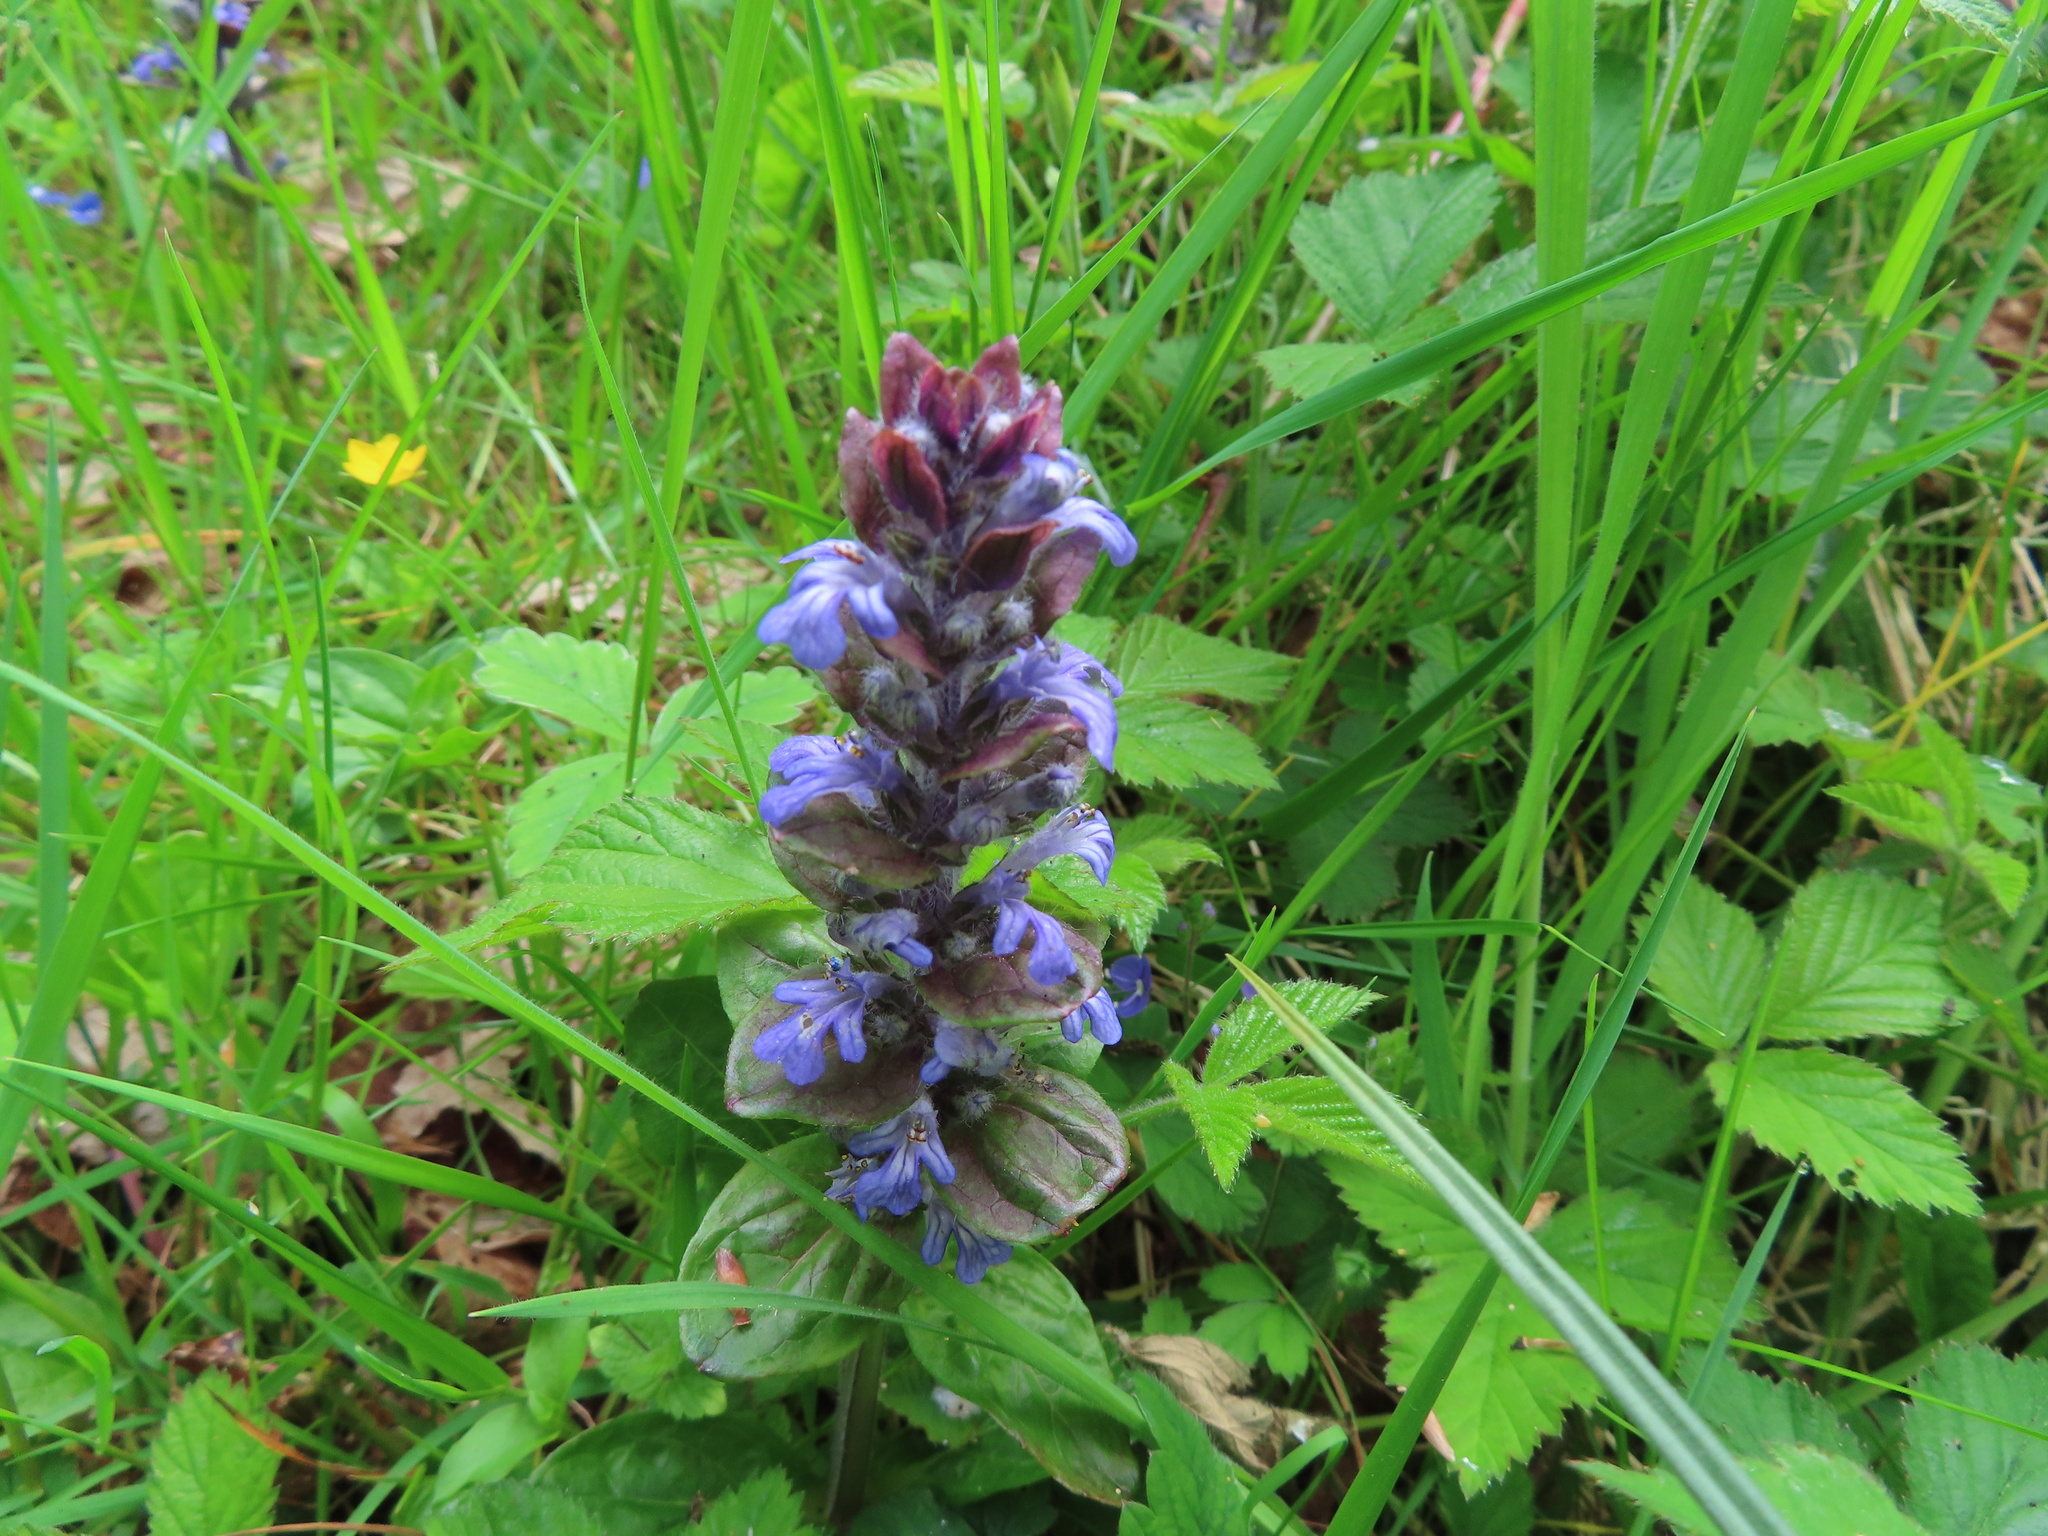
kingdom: Plantae
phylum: Tracheophyta
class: Magnoliopsida
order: Lamiales
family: Lamiaceae
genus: Ajuga
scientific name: Ajuga reptans
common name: Bugle
